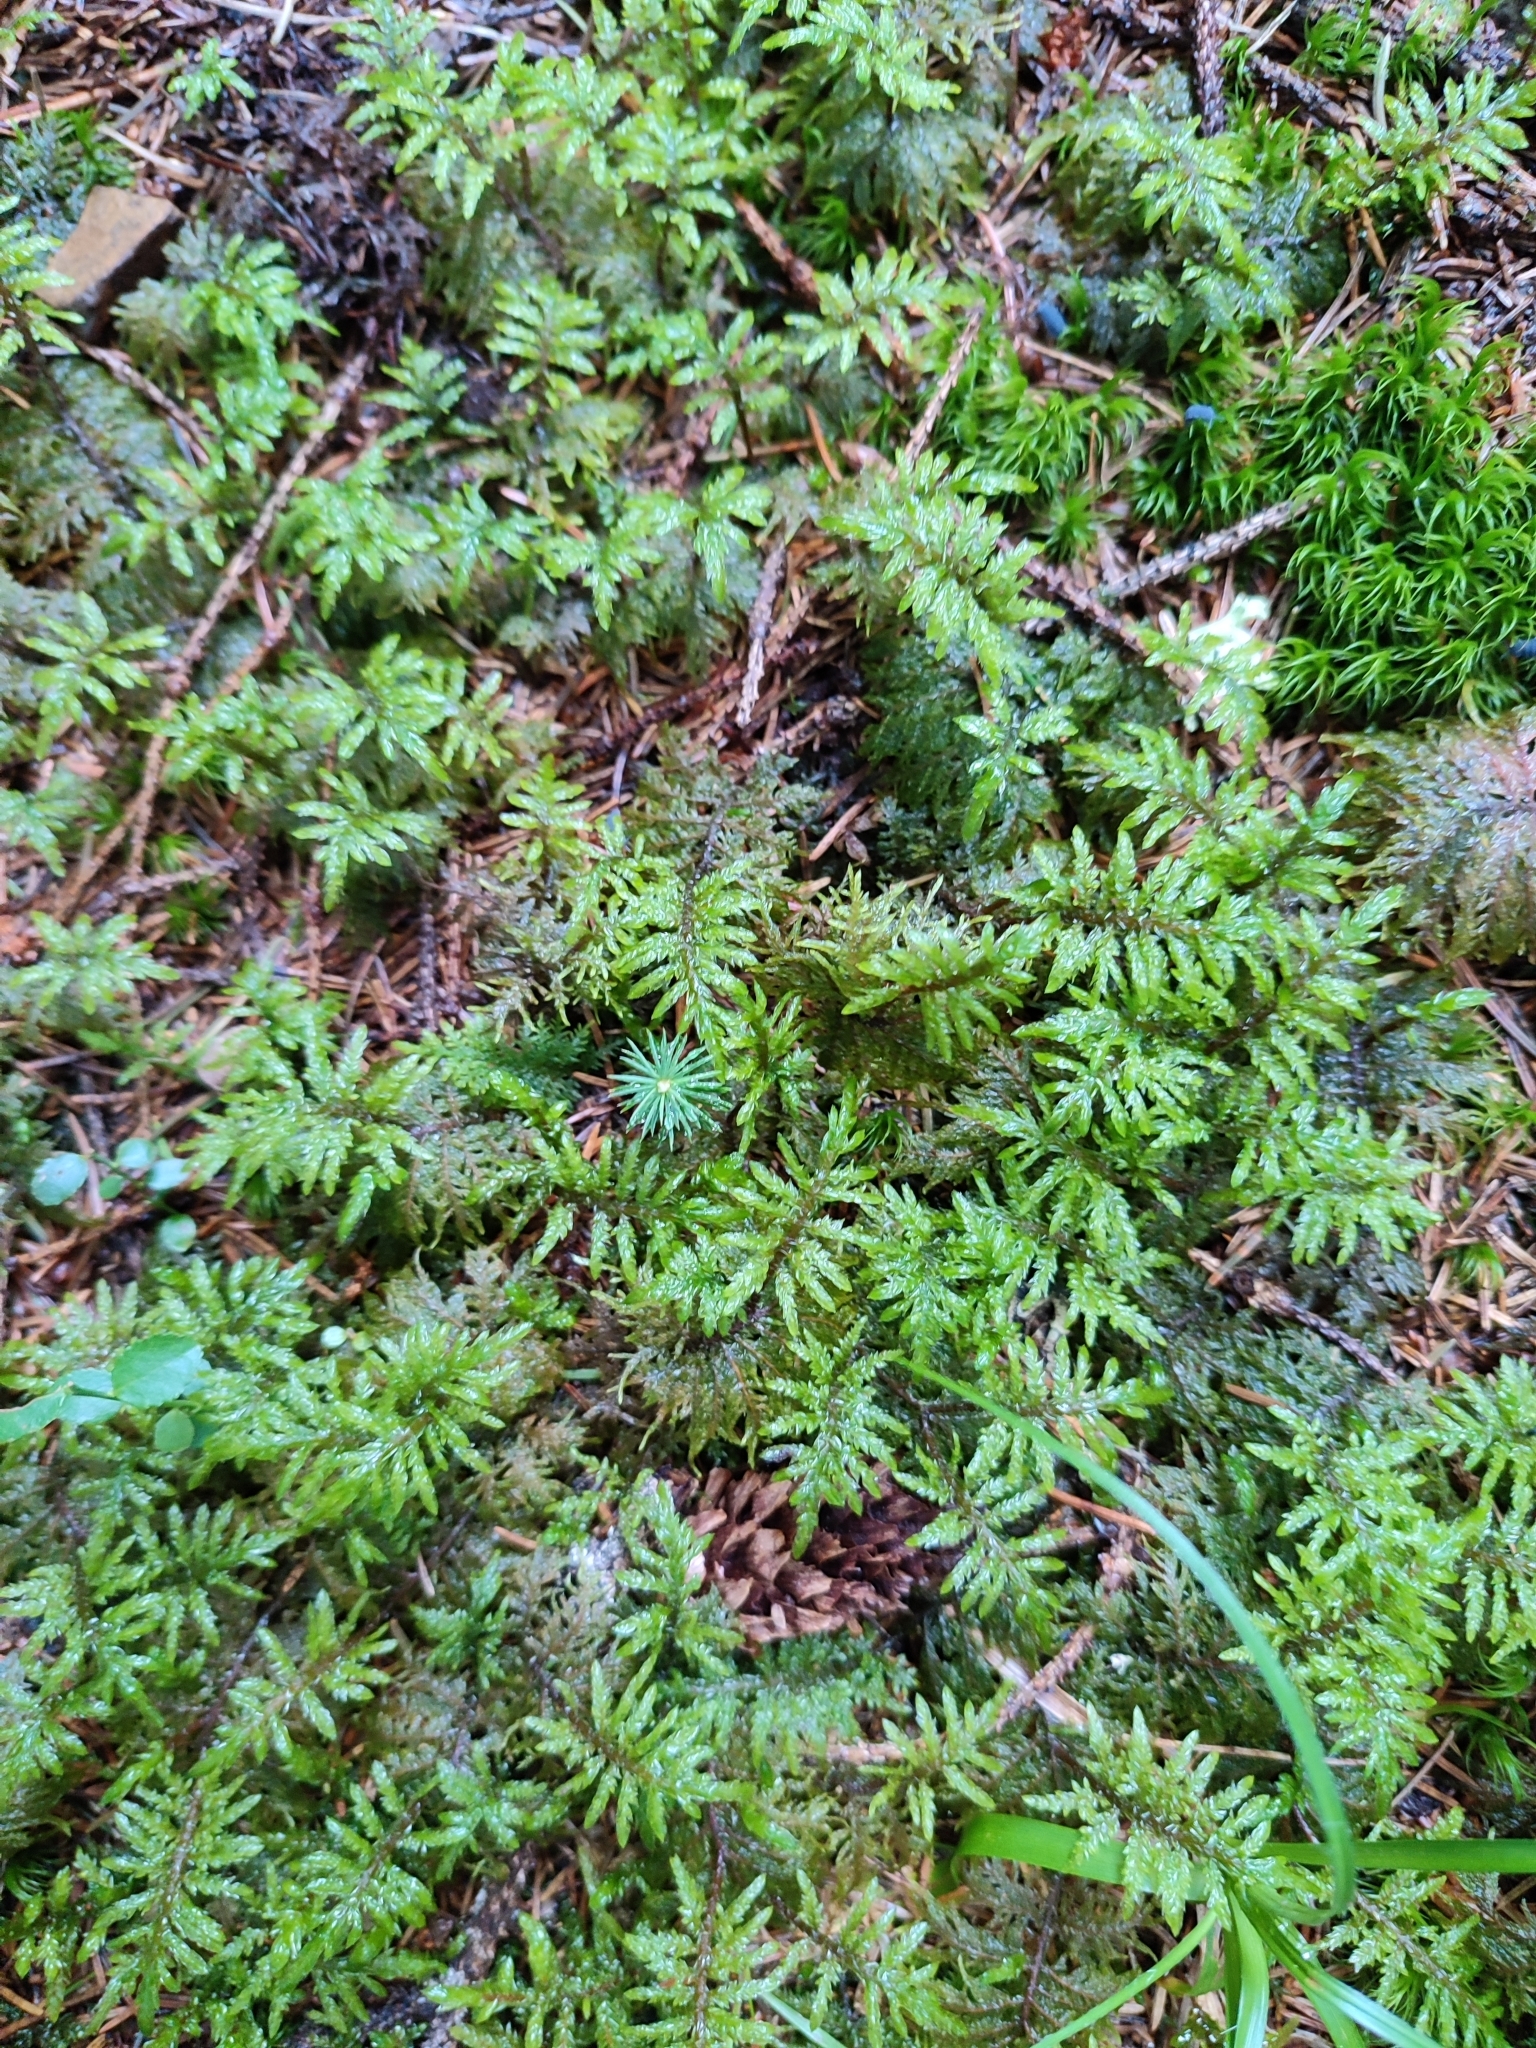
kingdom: Plantae
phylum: Bryophyta
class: Bryopsida
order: Hypnales
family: Hylocomiaceae
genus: Hylocomium
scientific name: Hylocomium splendens
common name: Stairstep moss
